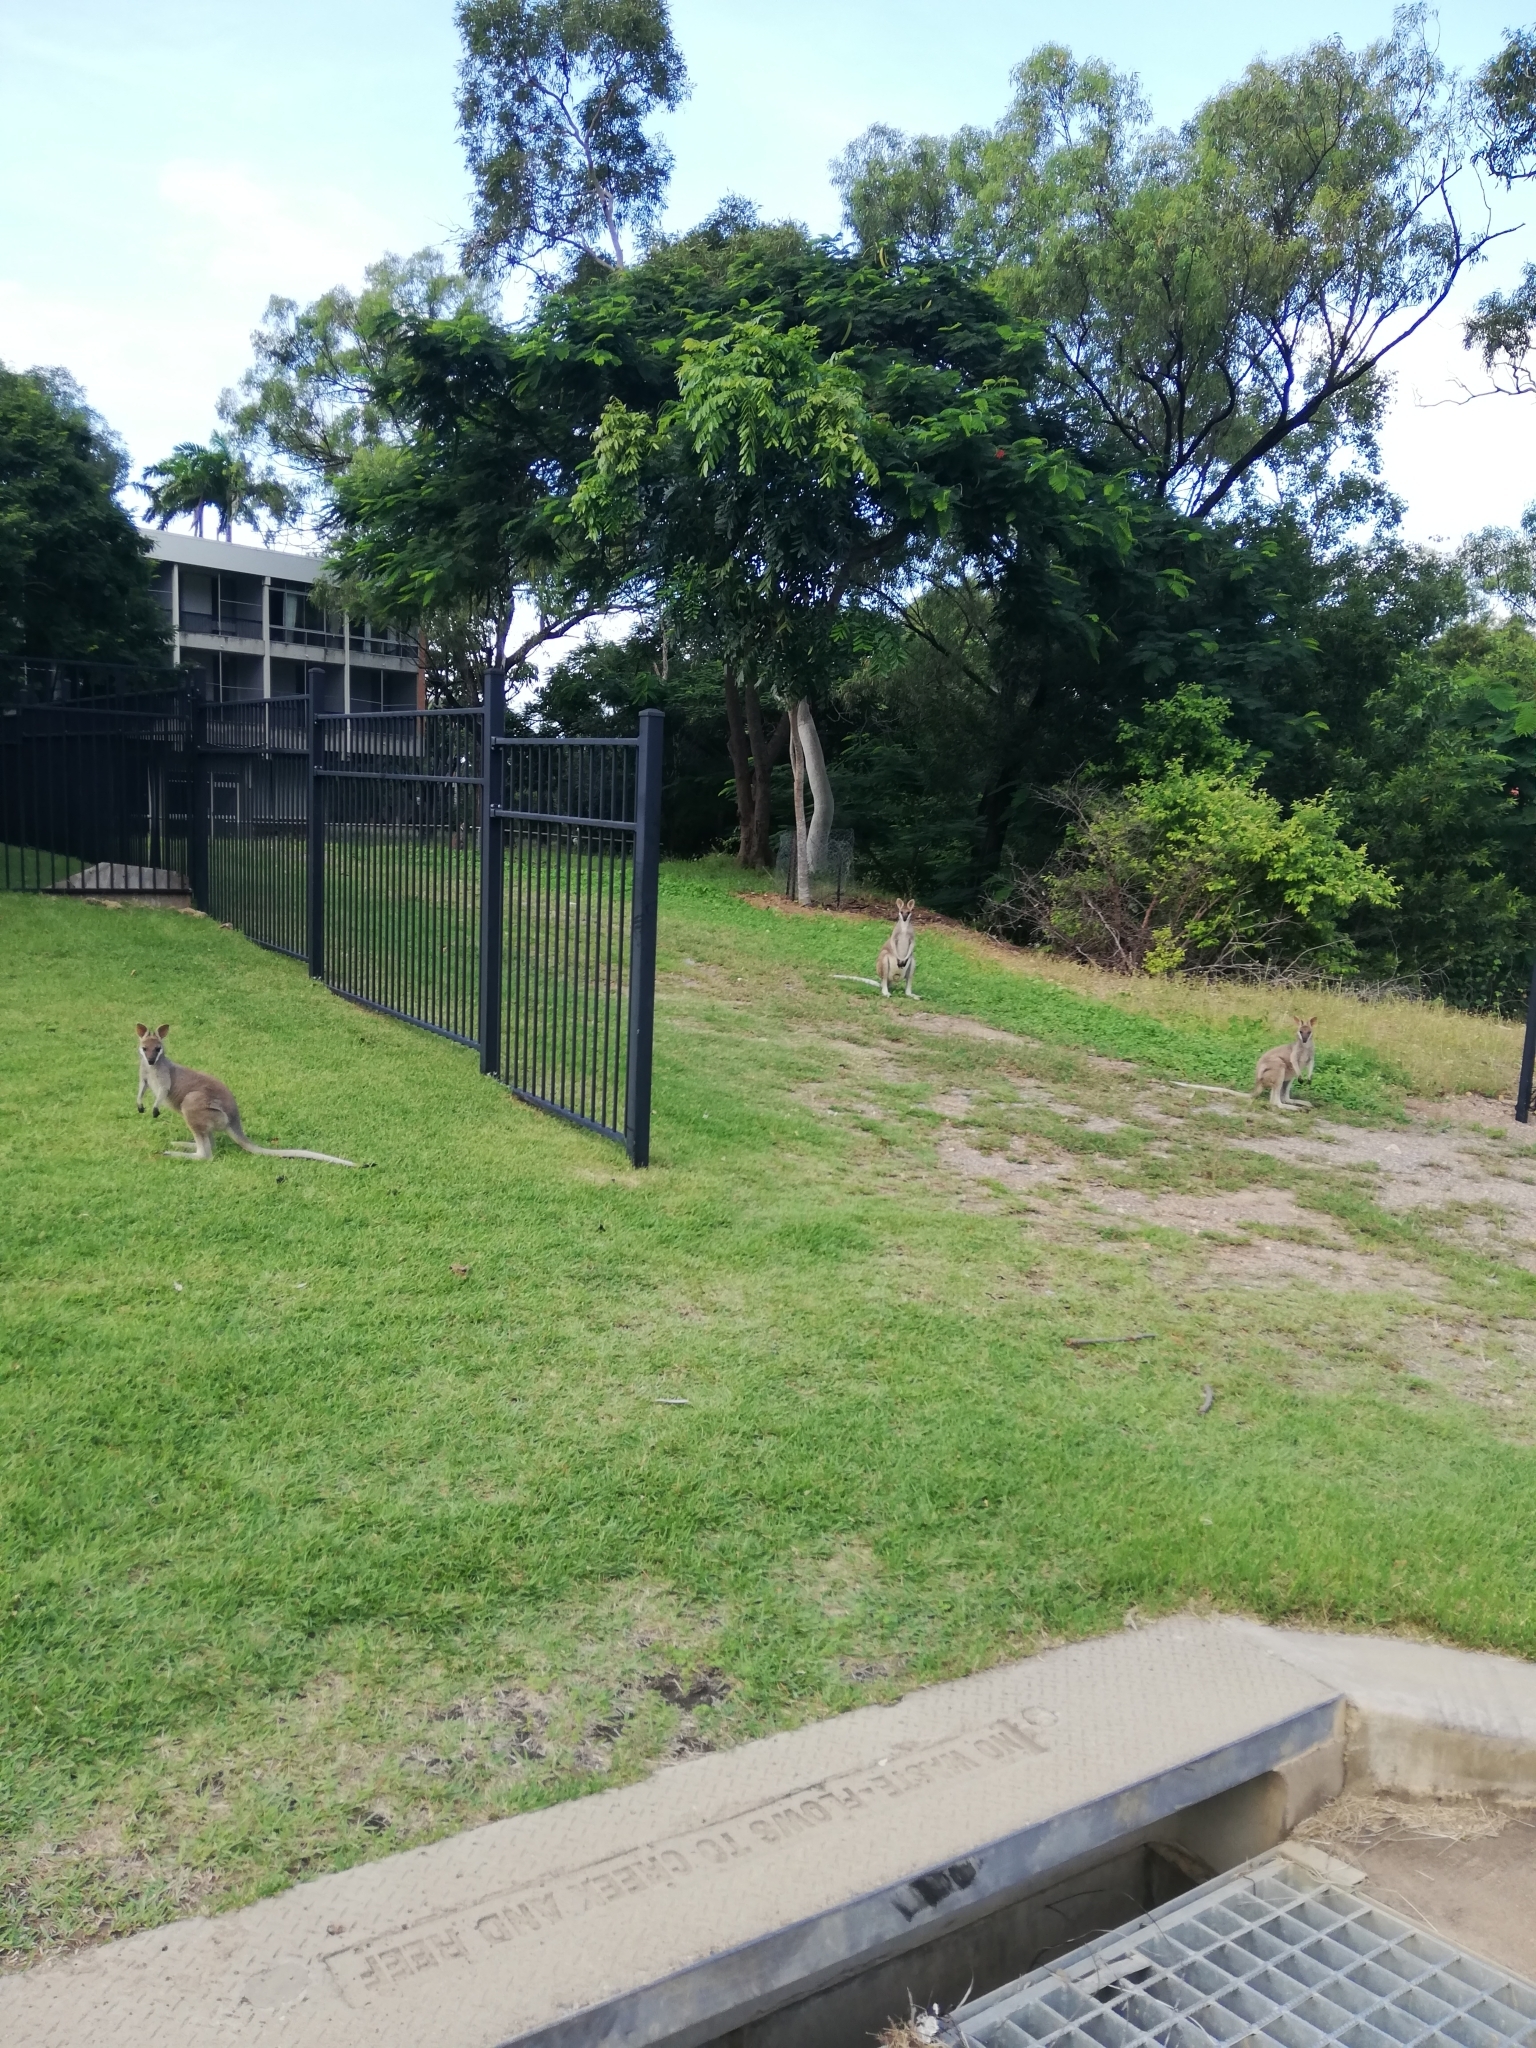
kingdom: Animalia
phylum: Chordata
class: Mammalia
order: Diprotodontia
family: Macropodidae
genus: Notamacropus
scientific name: Notamacropus parryi
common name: Whip-tailed wallaby
